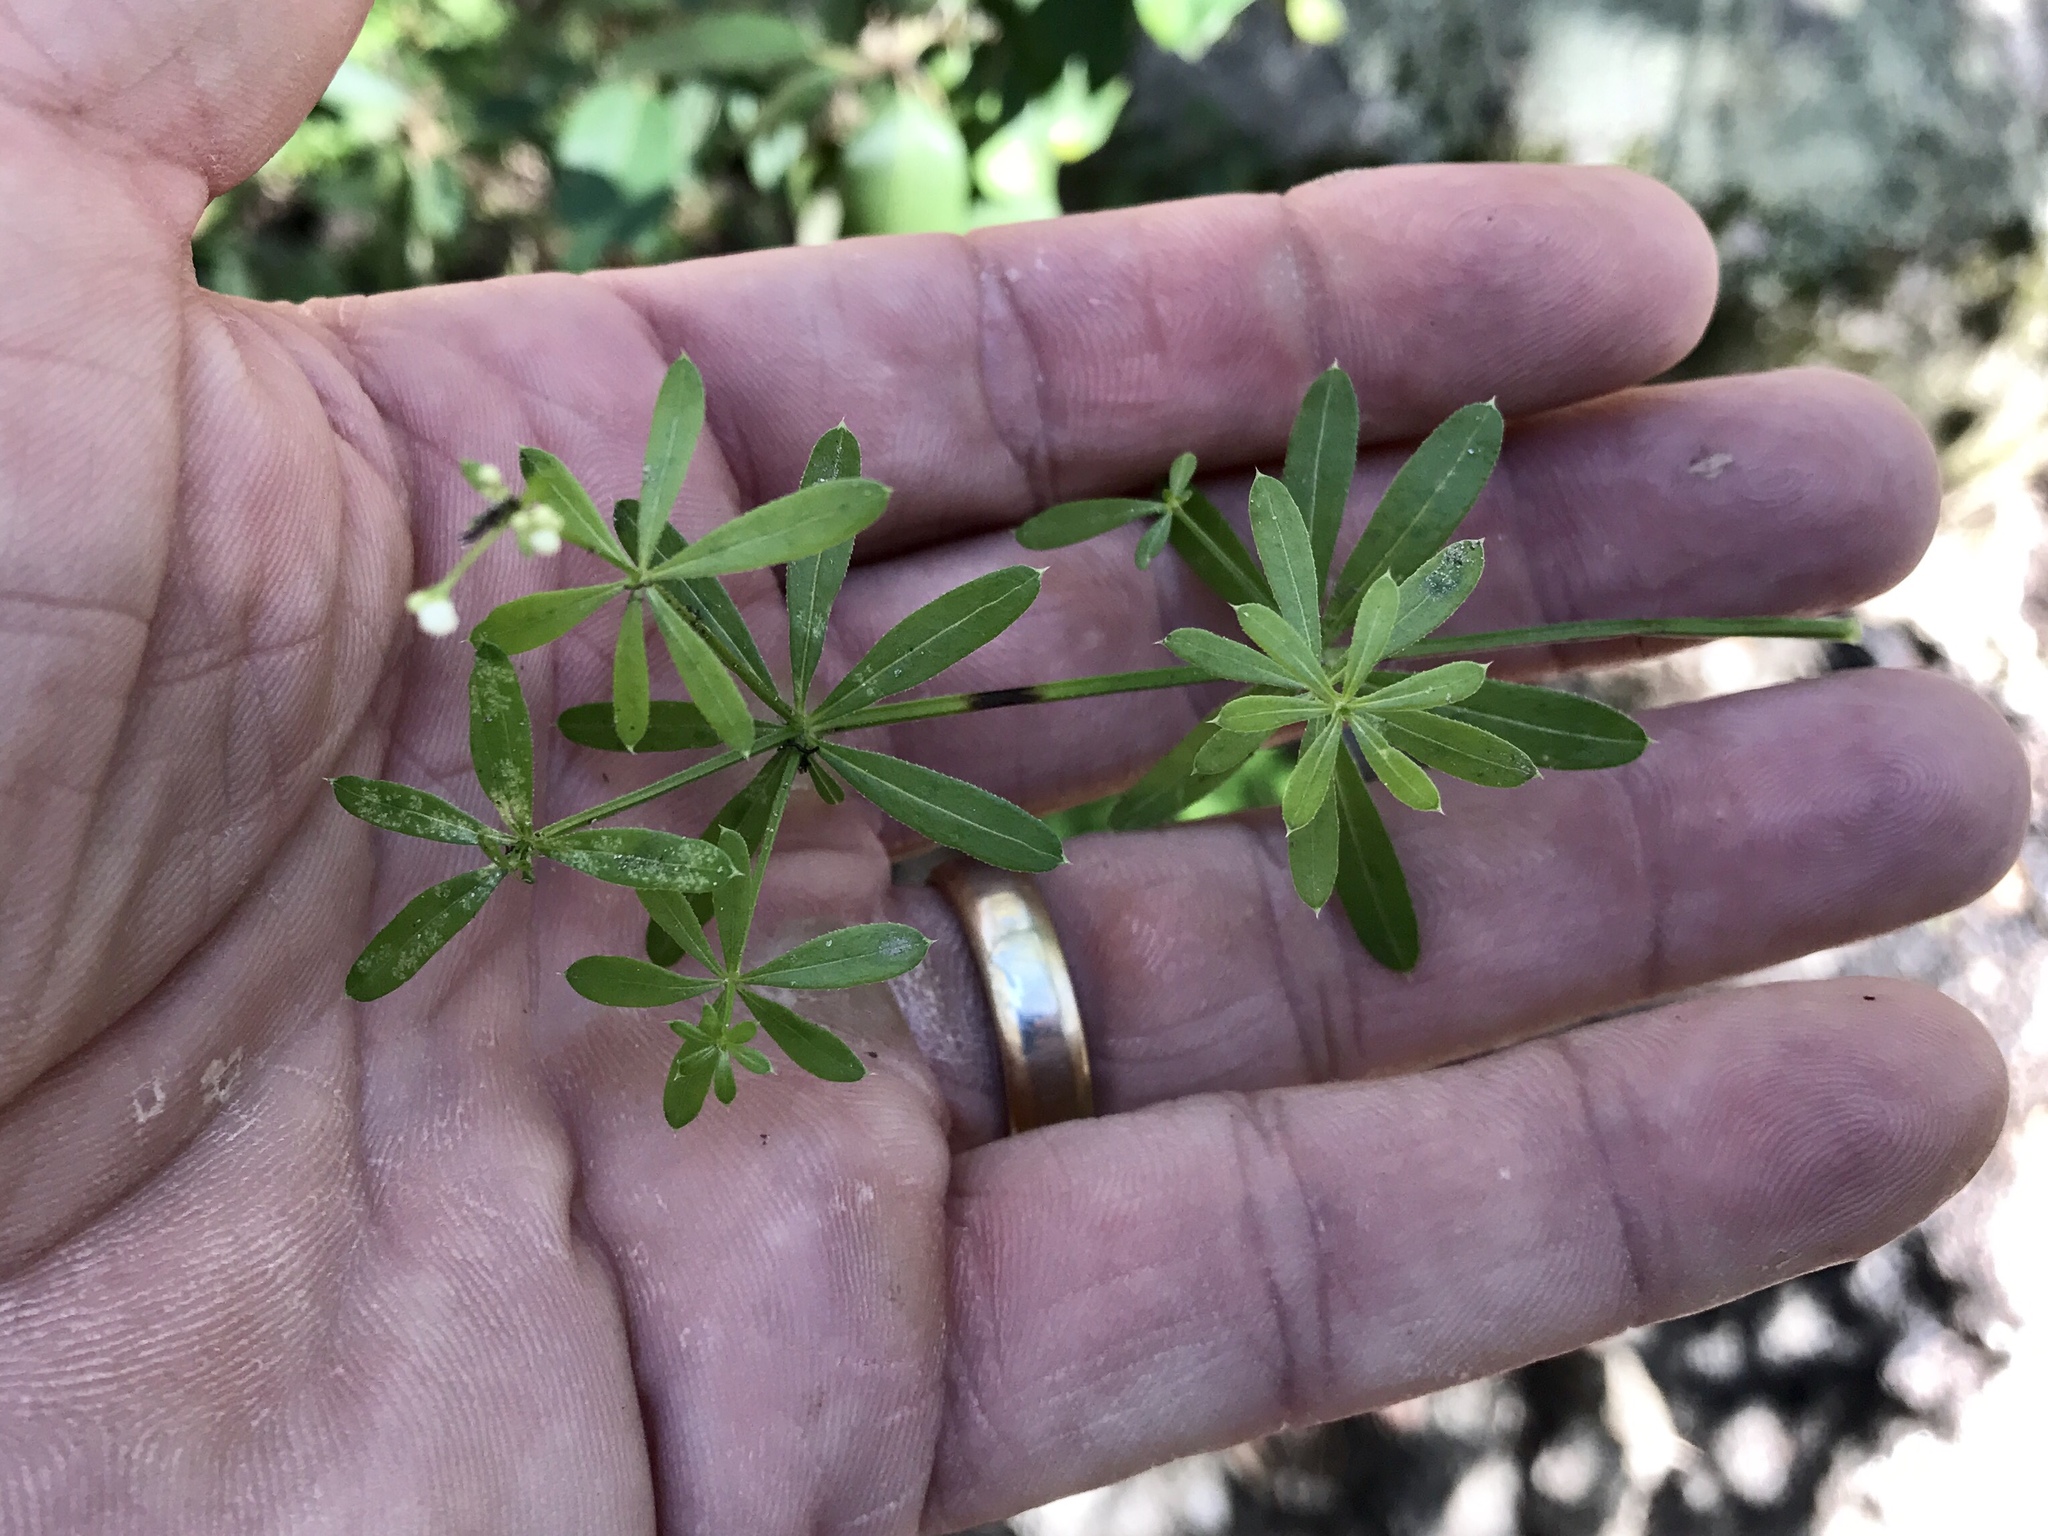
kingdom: Plantae
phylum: Tracheophyta
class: Magnoliopsida
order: Gentianales
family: Rubiaceae
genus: Galium
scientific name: Galium mexicanum
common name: Mexican bedstraw
